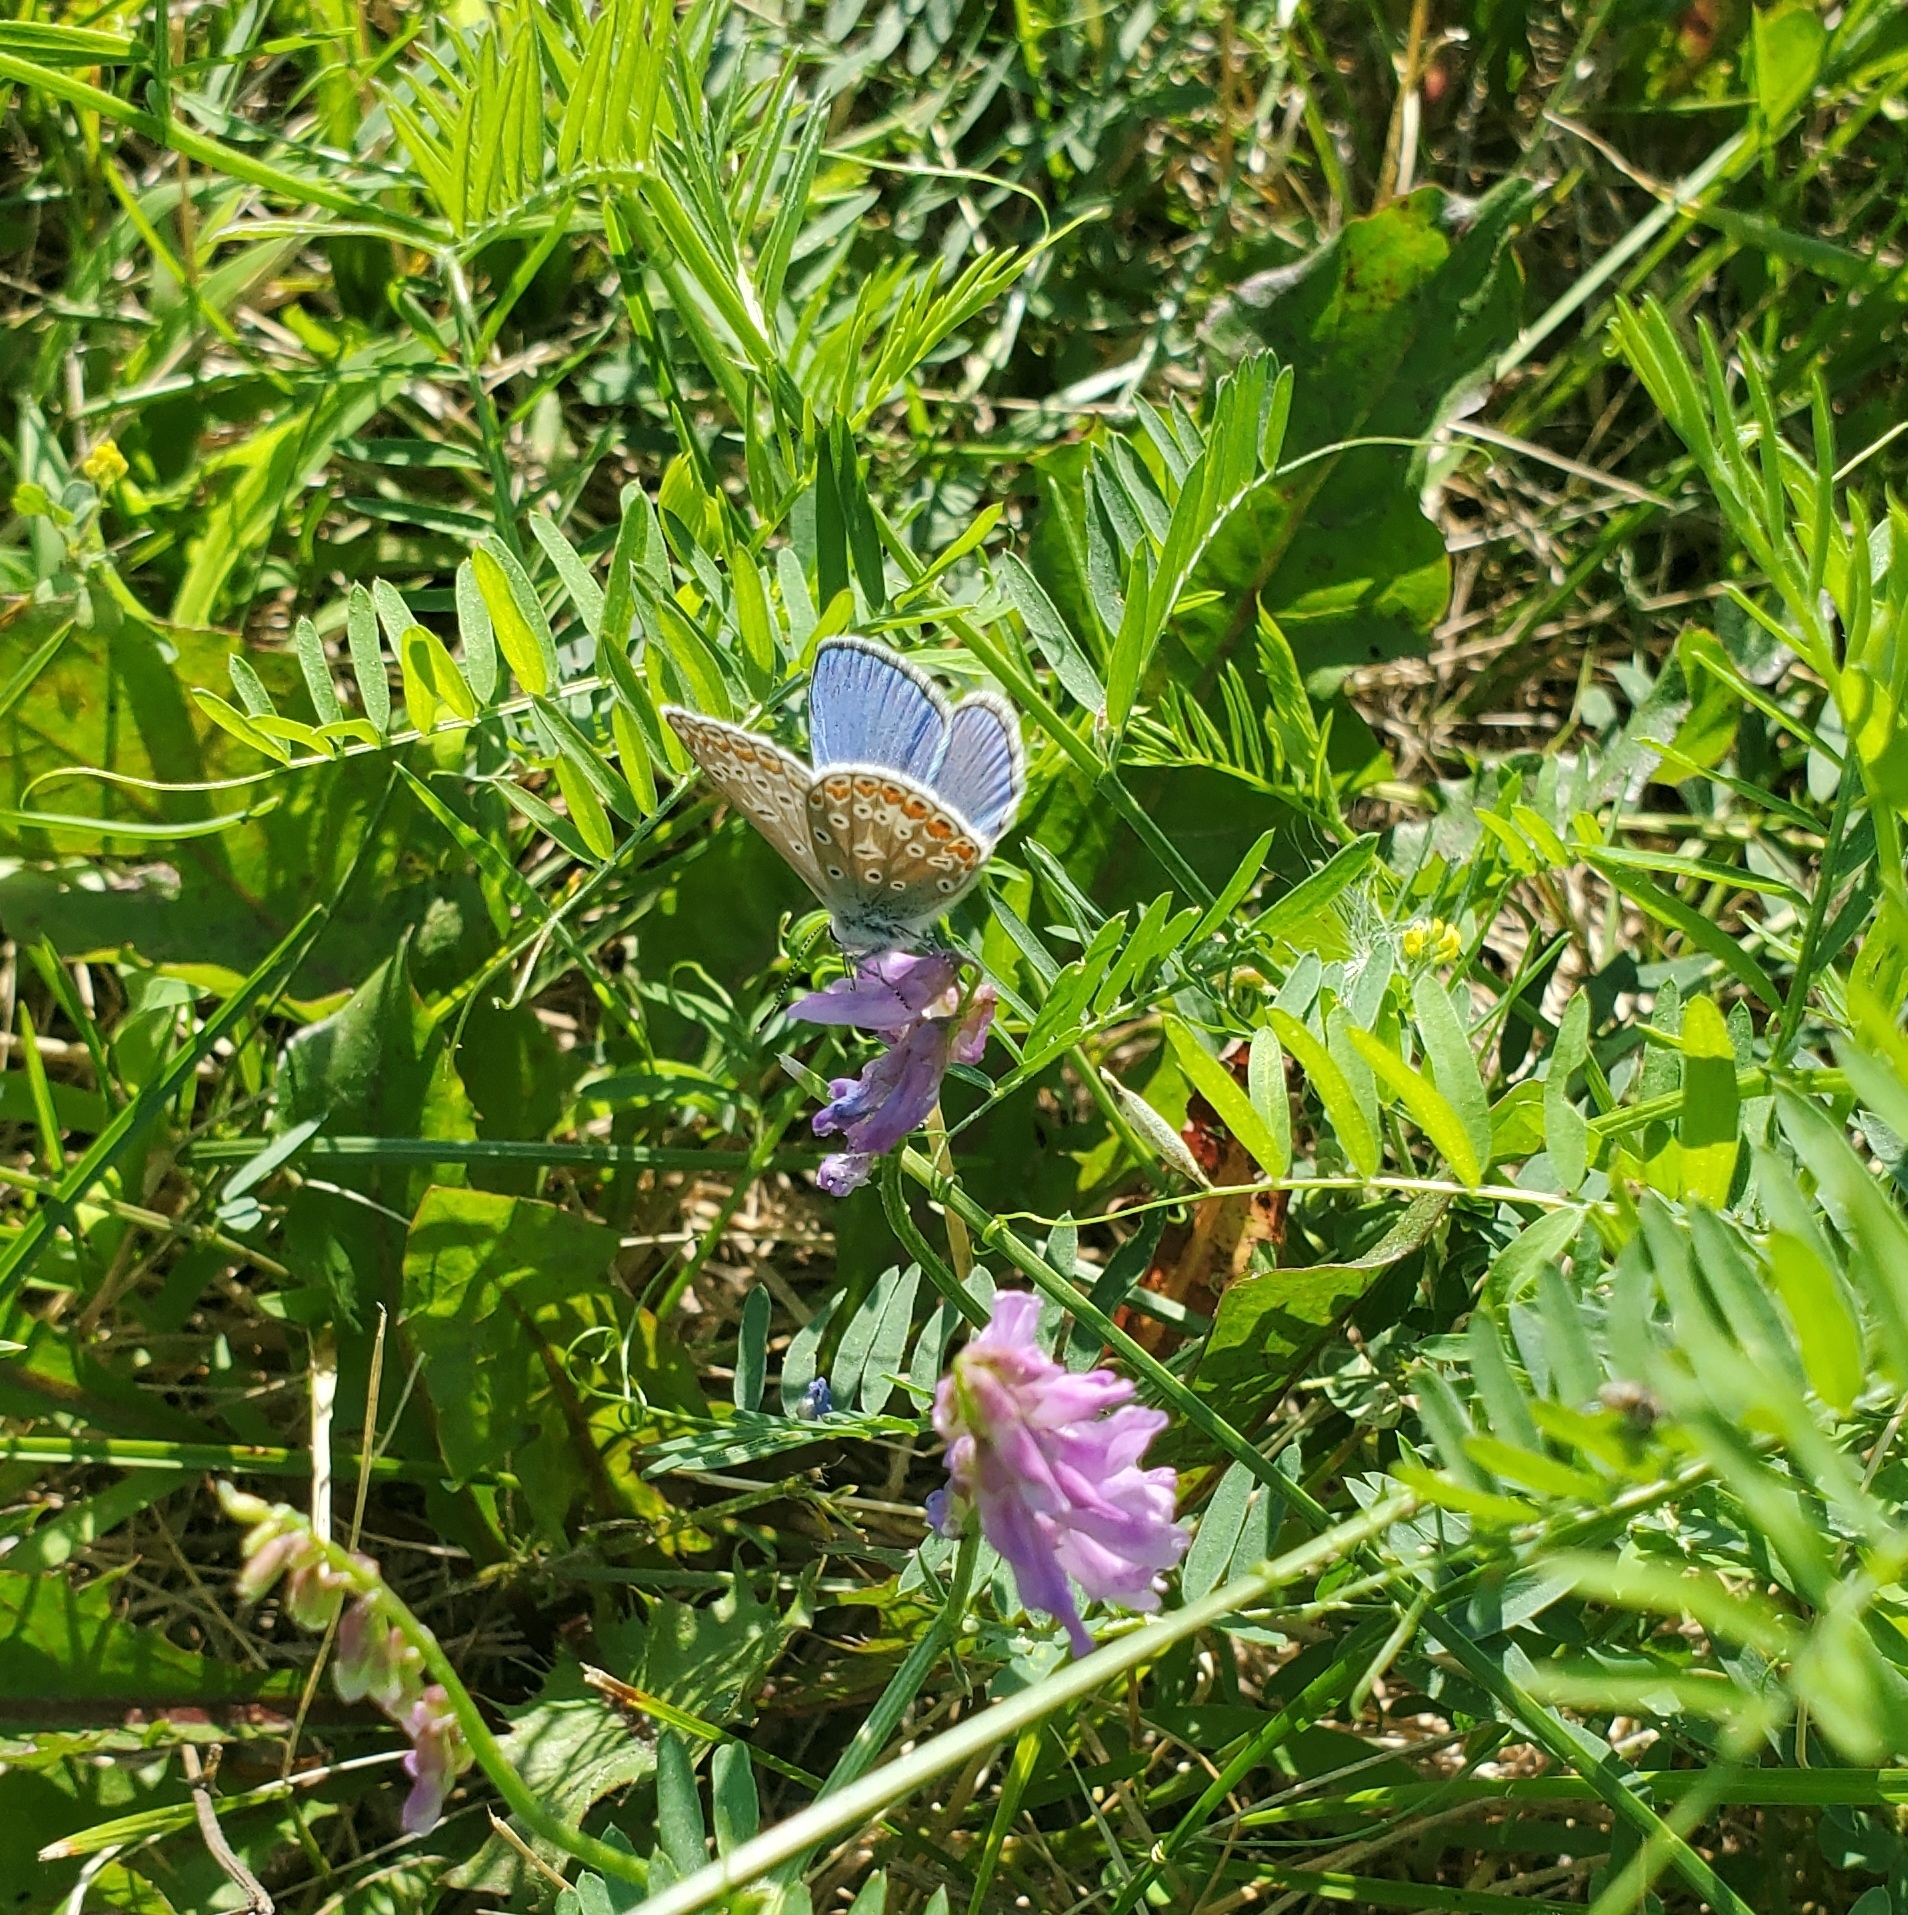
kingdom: Animalia
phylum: Arthropoda
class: Insecta
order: Lepidoptera
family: Lycaenidae
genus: Polyommatus
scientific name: Polyommatus icarus
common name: Common blue
